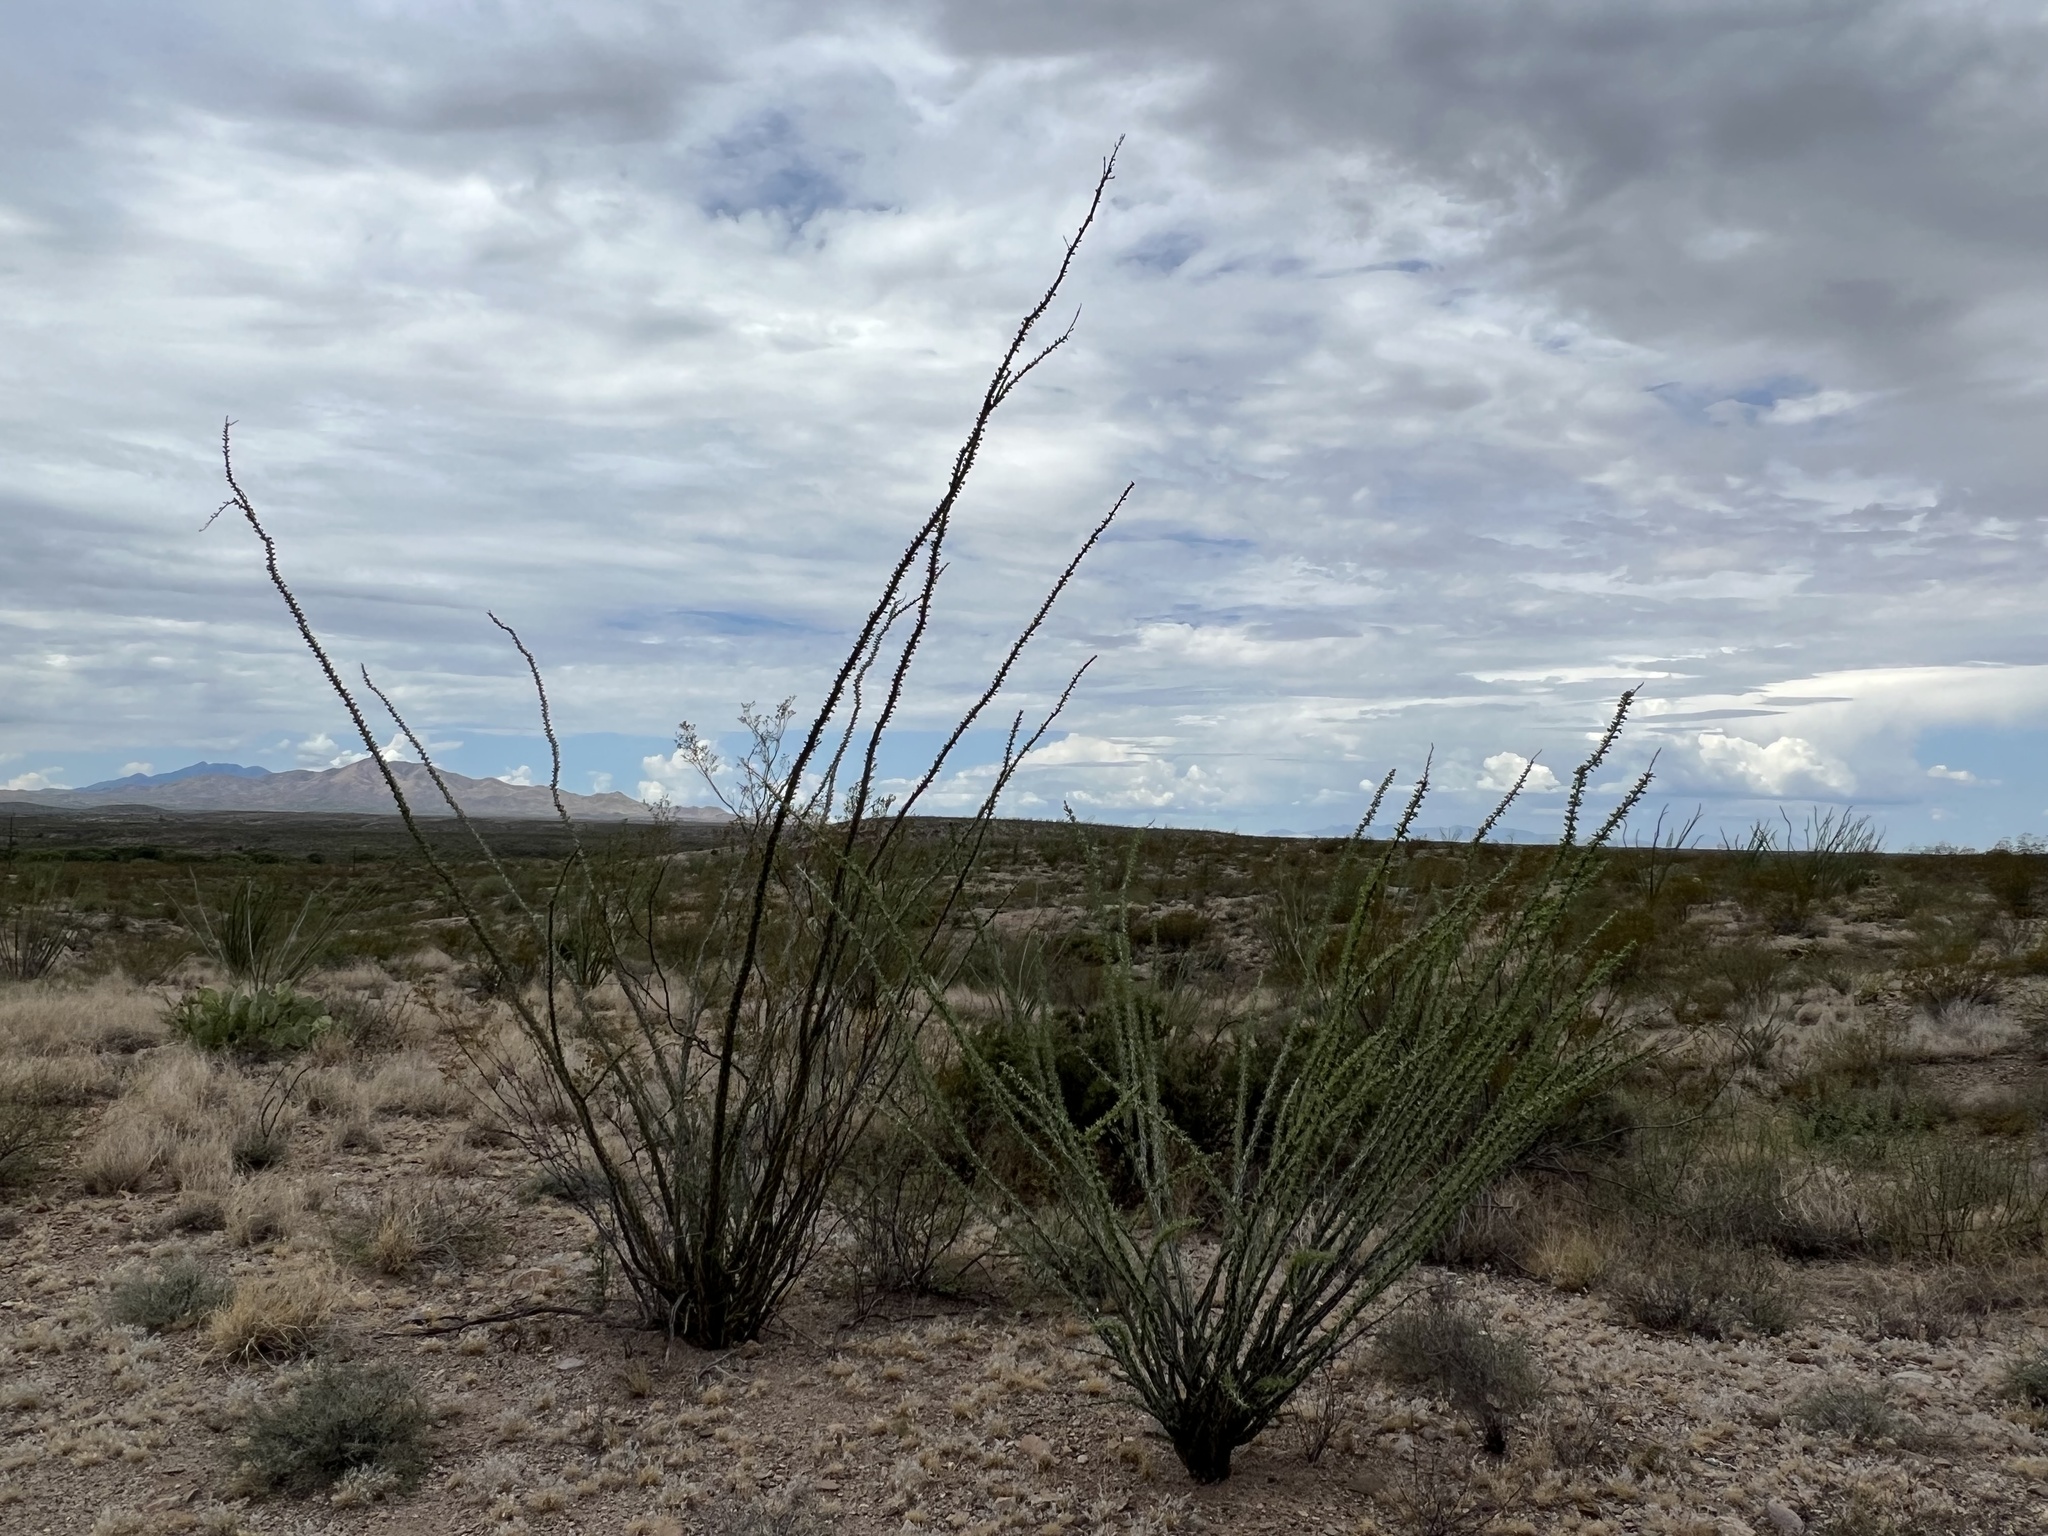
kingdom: Plantae
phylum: Tracheophyta
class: Magnoliopsida
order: Ericales
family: Fouquieriaceae
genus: Fouquieria
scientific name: Fouquieria splendens
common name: Vine-cactus
